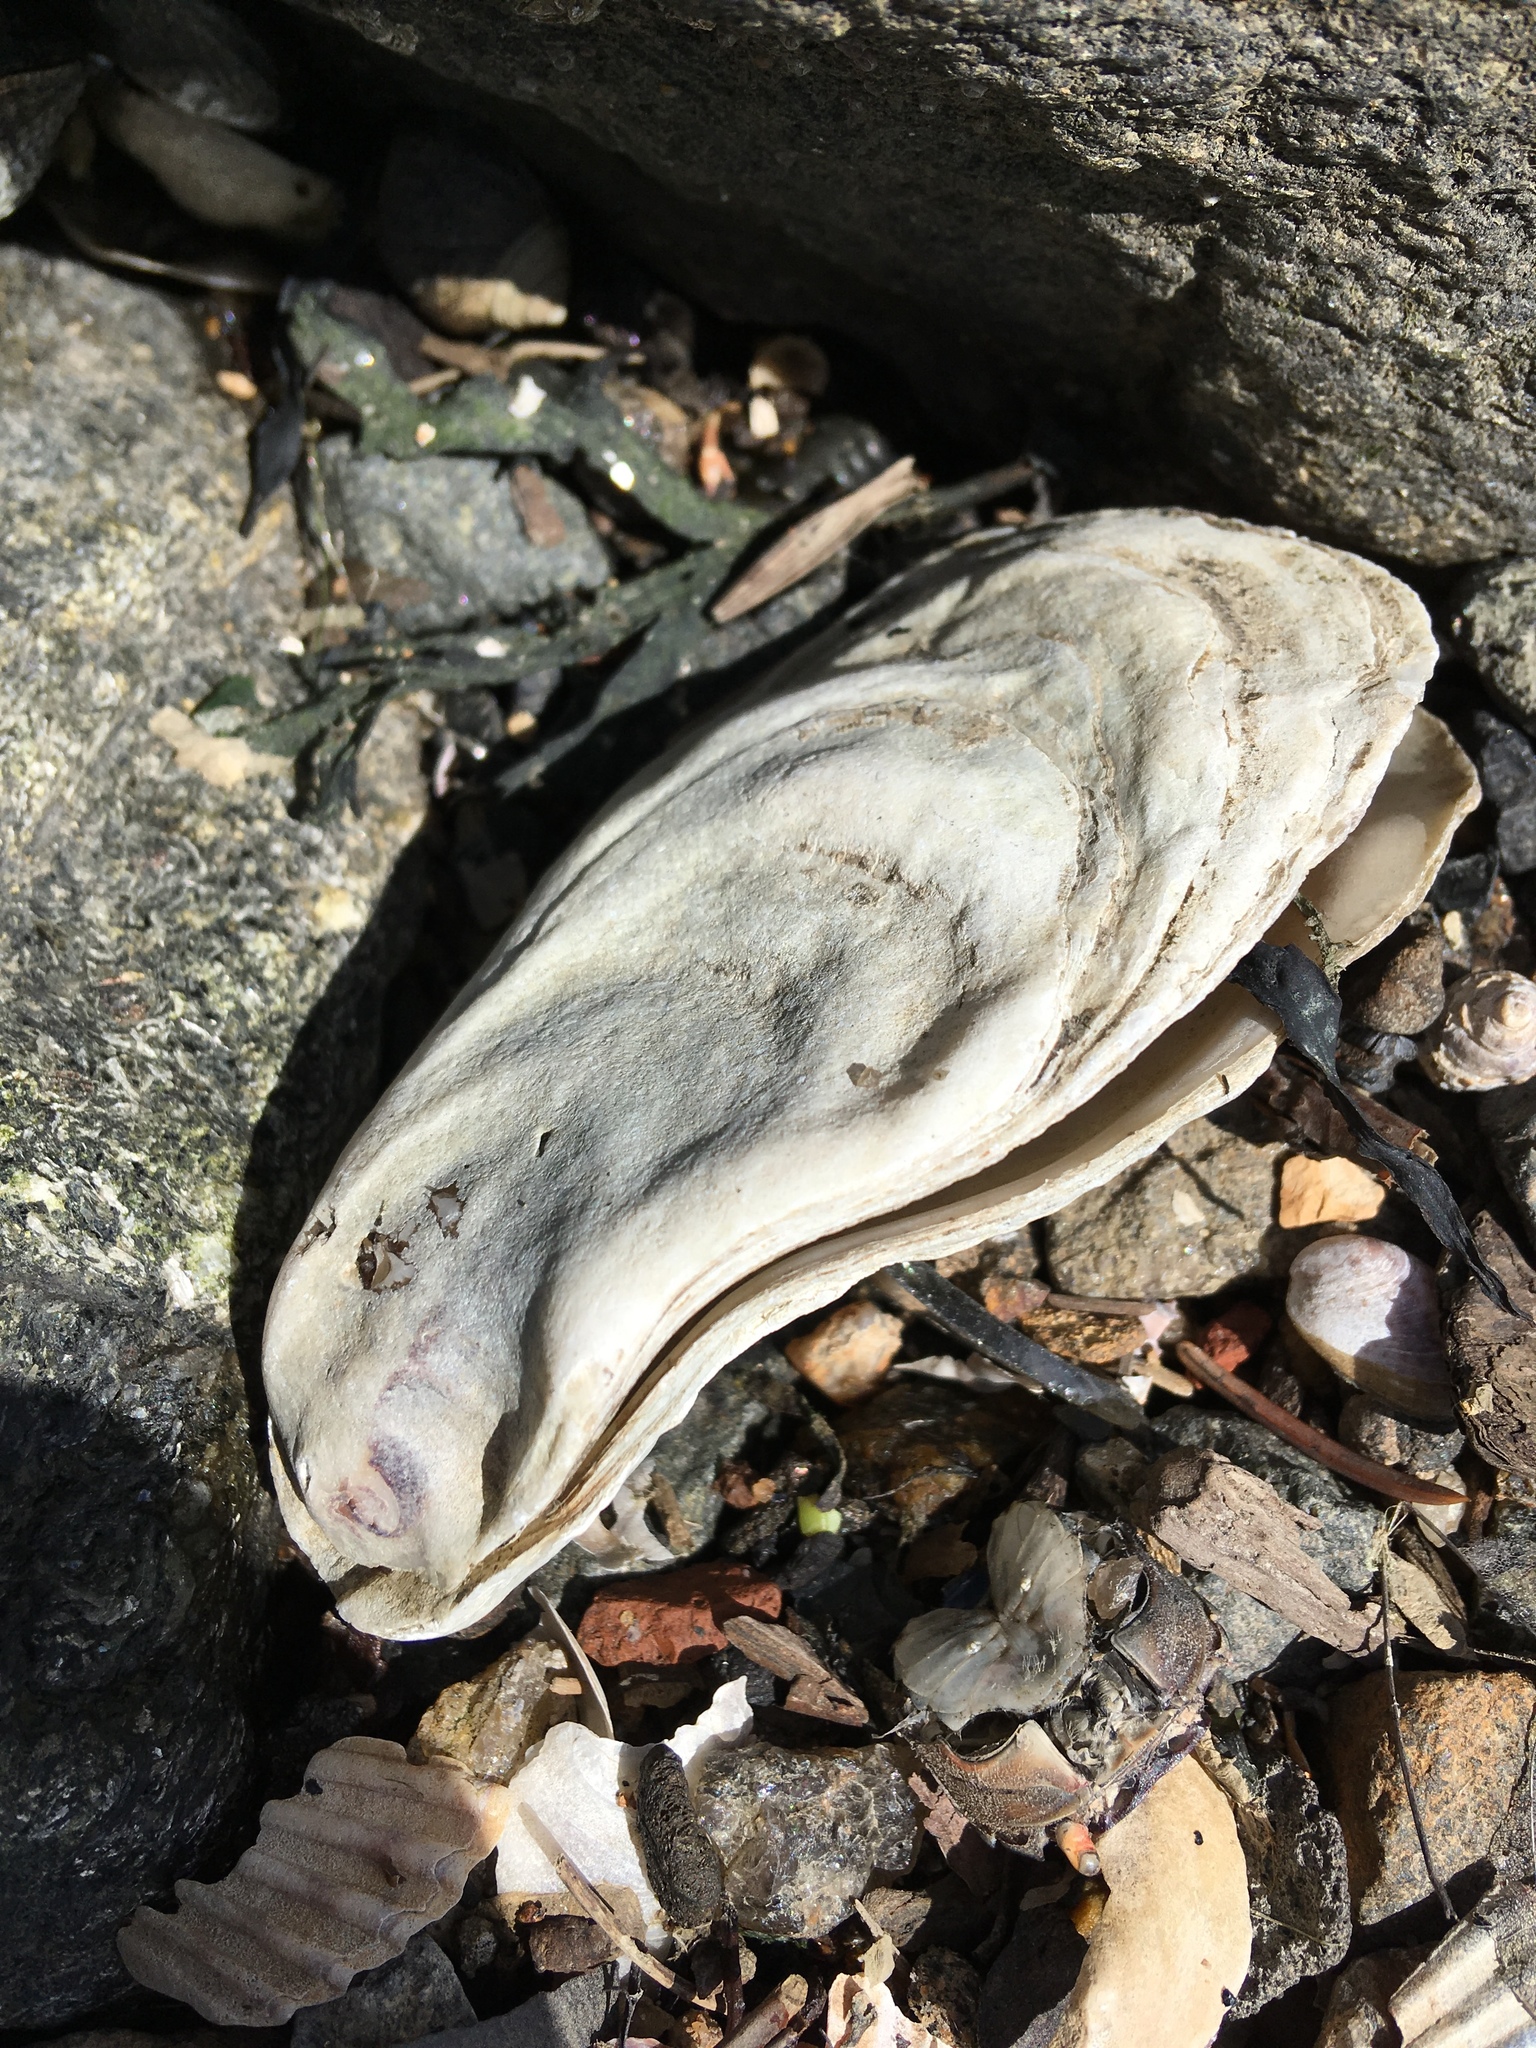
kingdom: Animalia
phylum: Mollusca
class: Bivalvia
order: Ostreida
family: Ostreidae
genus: Crassostrea
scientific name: Crassostrea virginica
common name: American oyster
